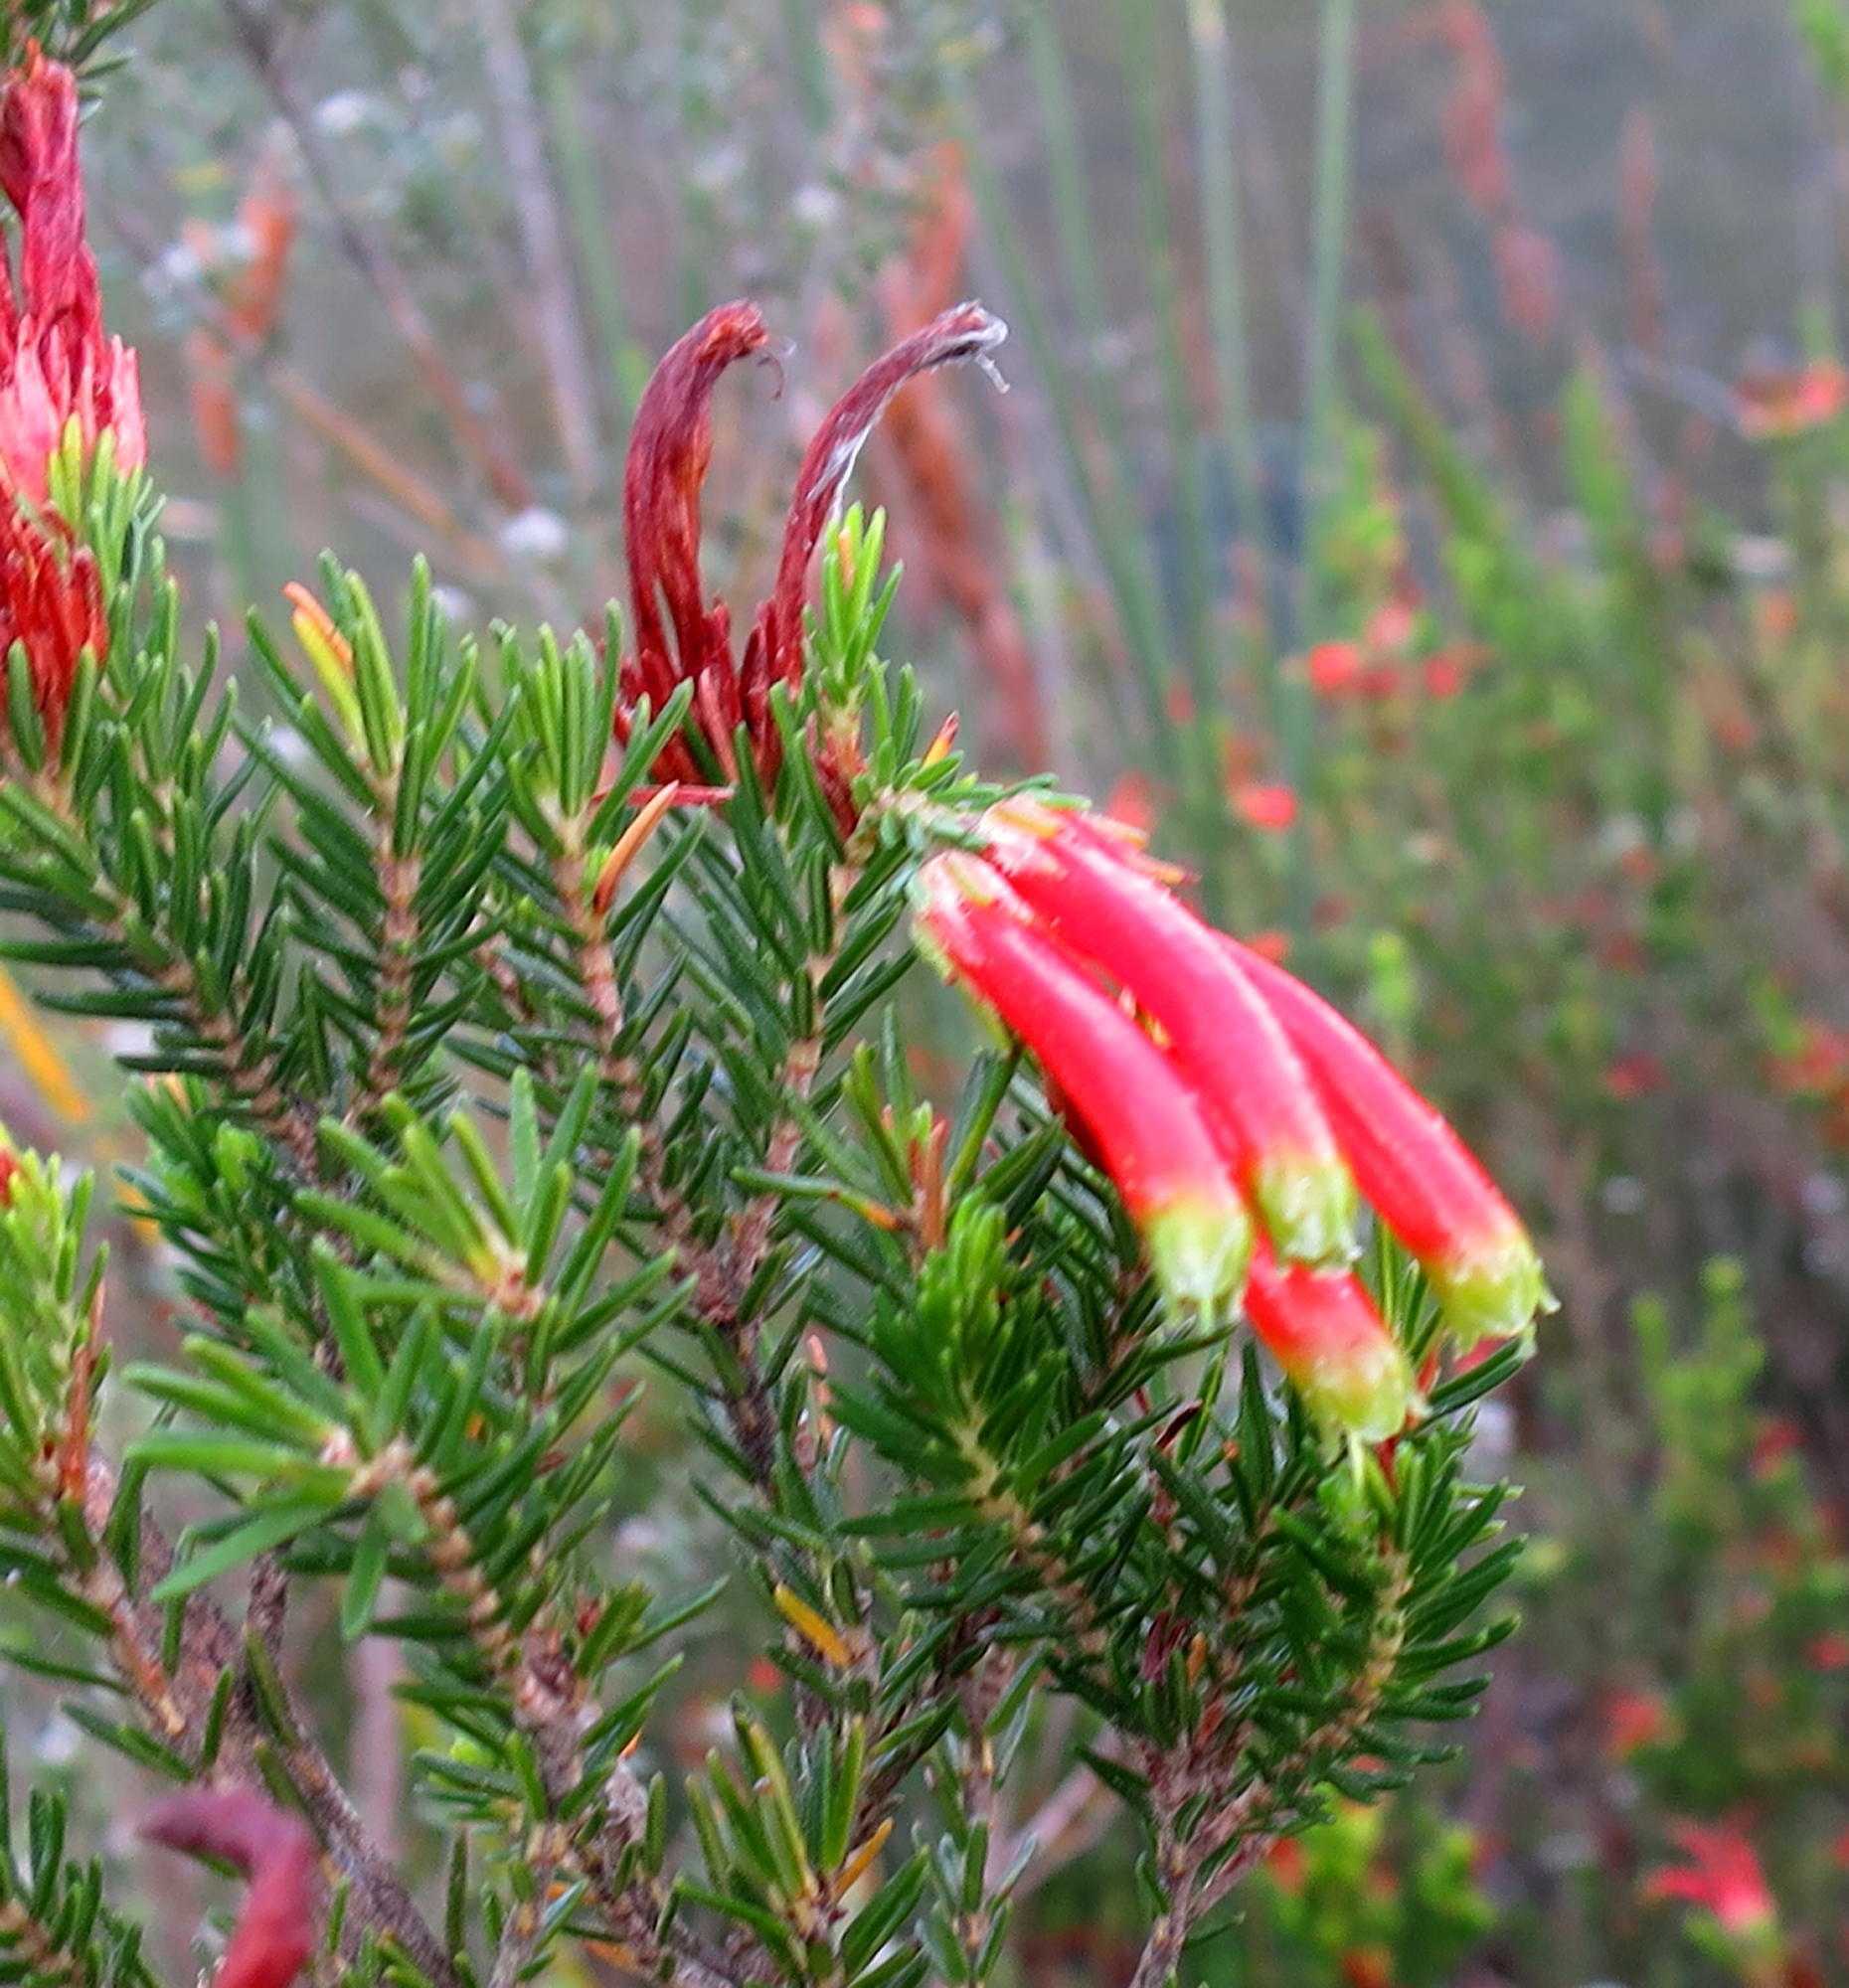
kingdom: Plantae
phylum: Tracheophyta
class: Magnoliopsida
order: Ericales
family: Ericaceae
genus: Erica
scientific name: Erica unicolor
